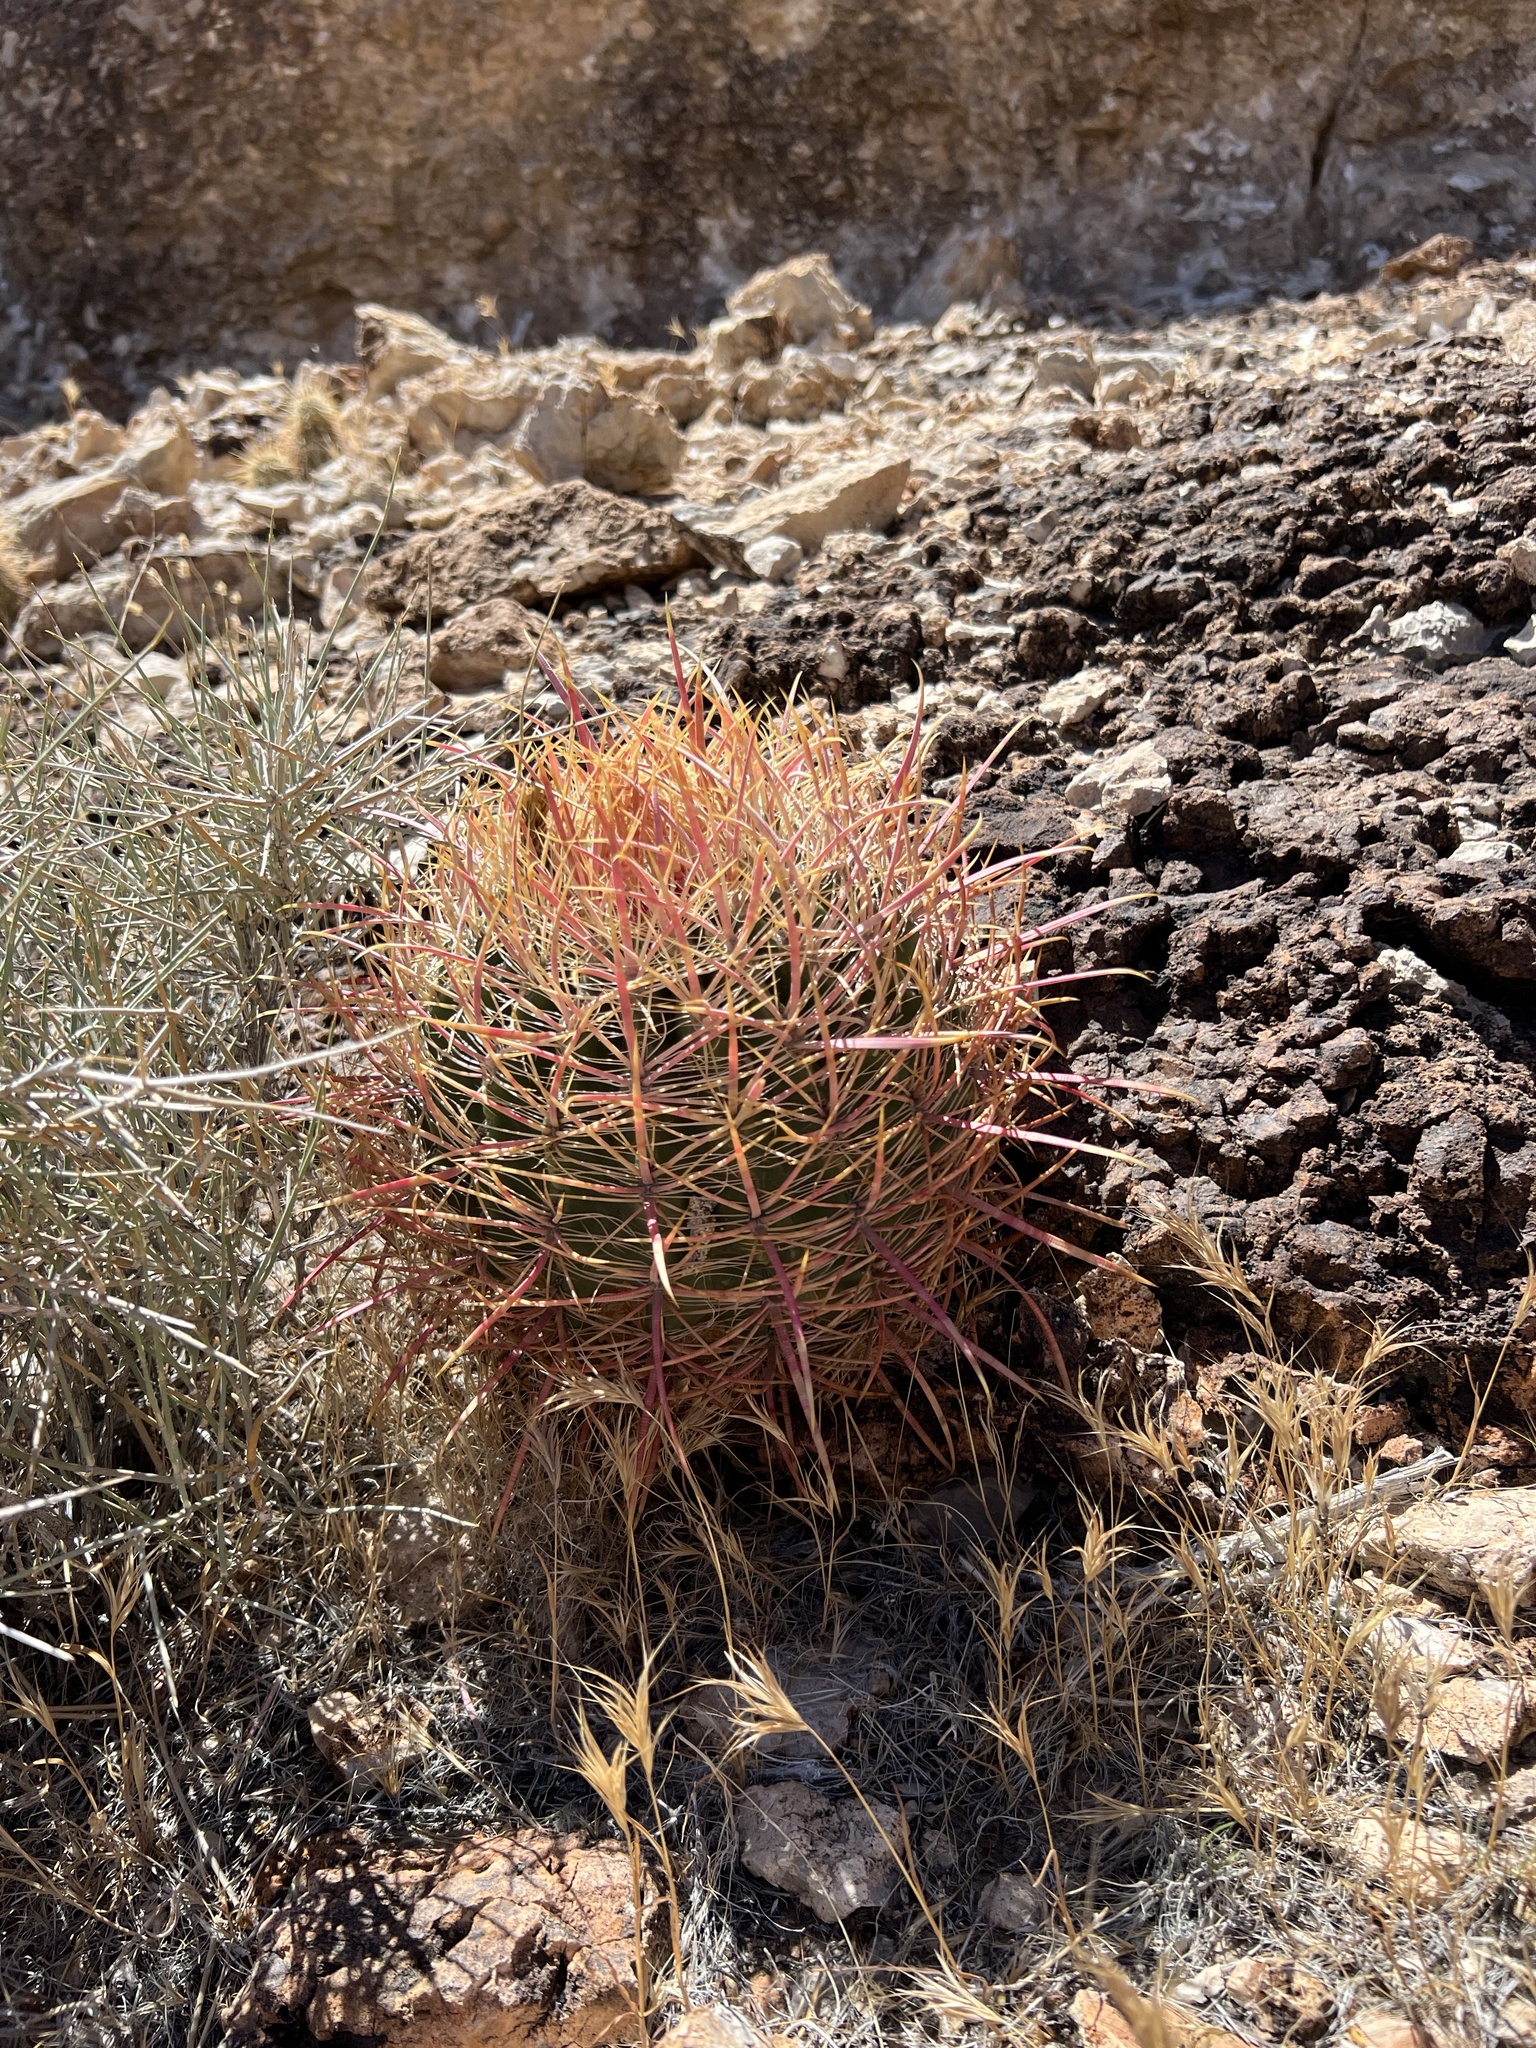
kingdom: Plantae
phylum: Tracheophyta
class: Magnoliopsida
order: Caryophyllales
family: Cactaceae
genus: Ferocactus
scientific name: Ferocactus cylindraceus
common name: California barrel cactus
